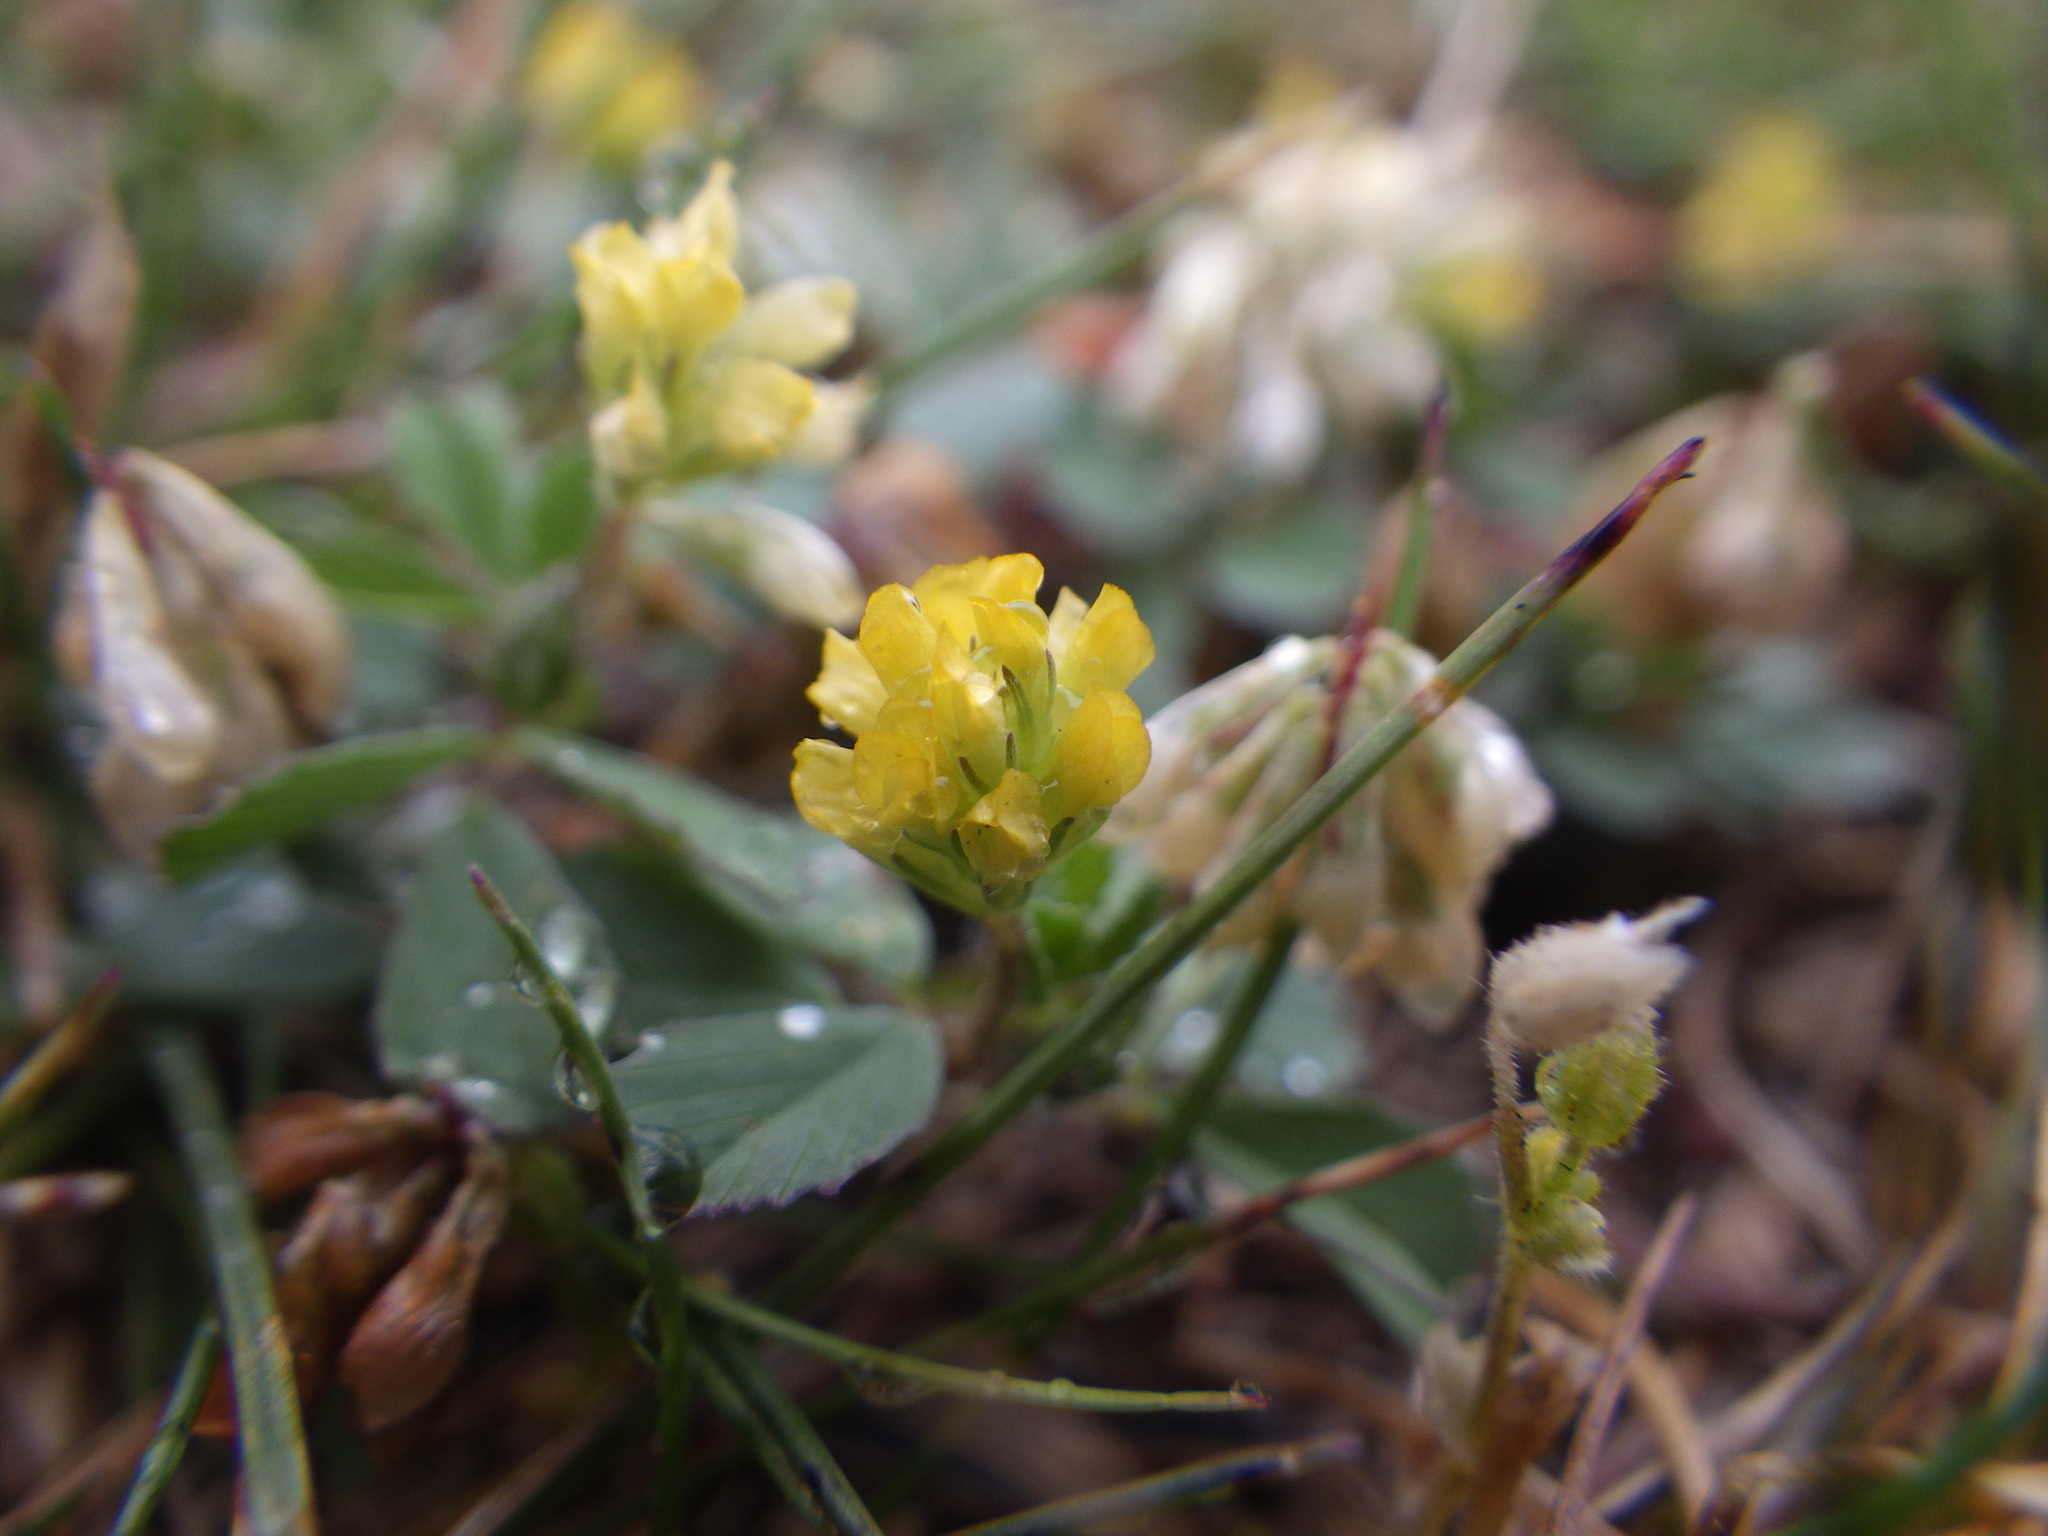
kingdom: Plantae
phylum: Tracheophyta
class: Magnoliopsida
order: Fabales
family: Fabaceae
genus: Trifolium
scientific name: Trifolium dubium
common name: Suckling clover
